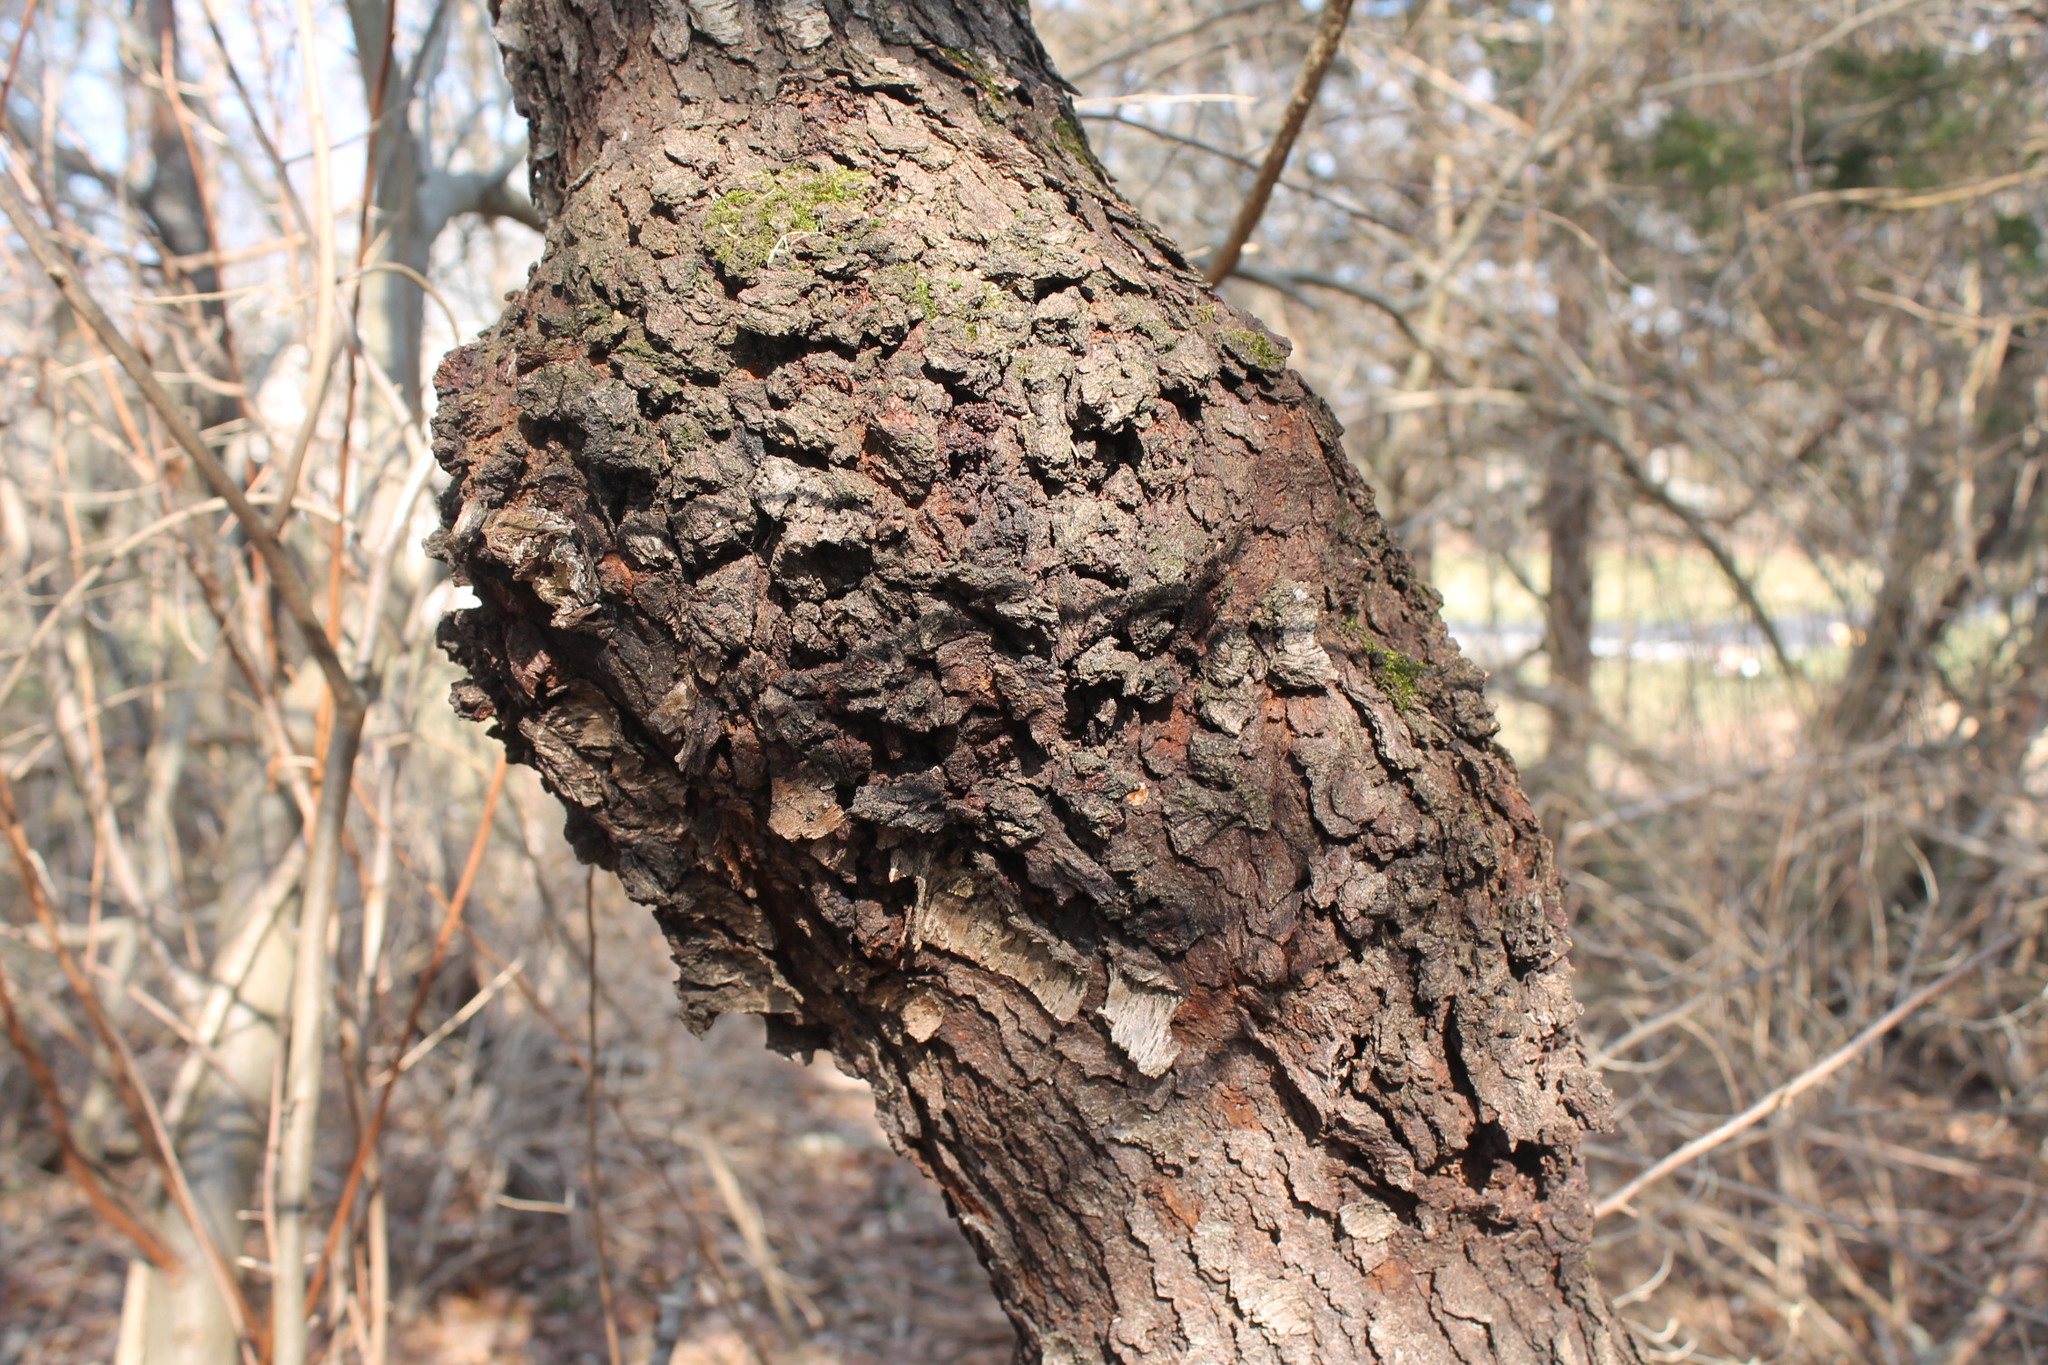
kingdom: Bacteria
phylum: Proteobacteria
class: Alphaproteobacteria
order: Rhizobiales
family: Rhizobiaceae
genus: Rhizobium
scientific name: Rhizobium Agrobacterium radiobacter
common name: Bacterial crown gall
